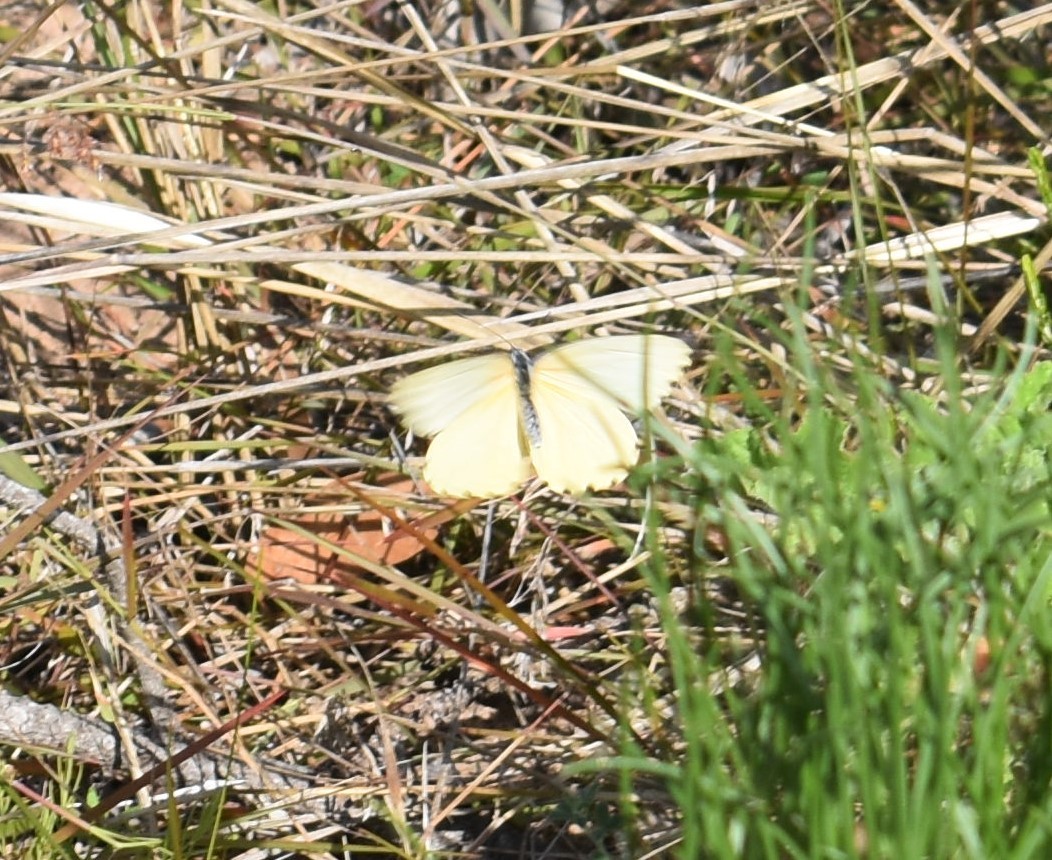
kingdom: Animalia
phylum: Arthropoda
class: Insecta
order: Lepidoptera
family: Pieridae
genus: Mylothris
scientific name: Mylothris agathina
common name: Eastern dotted border
